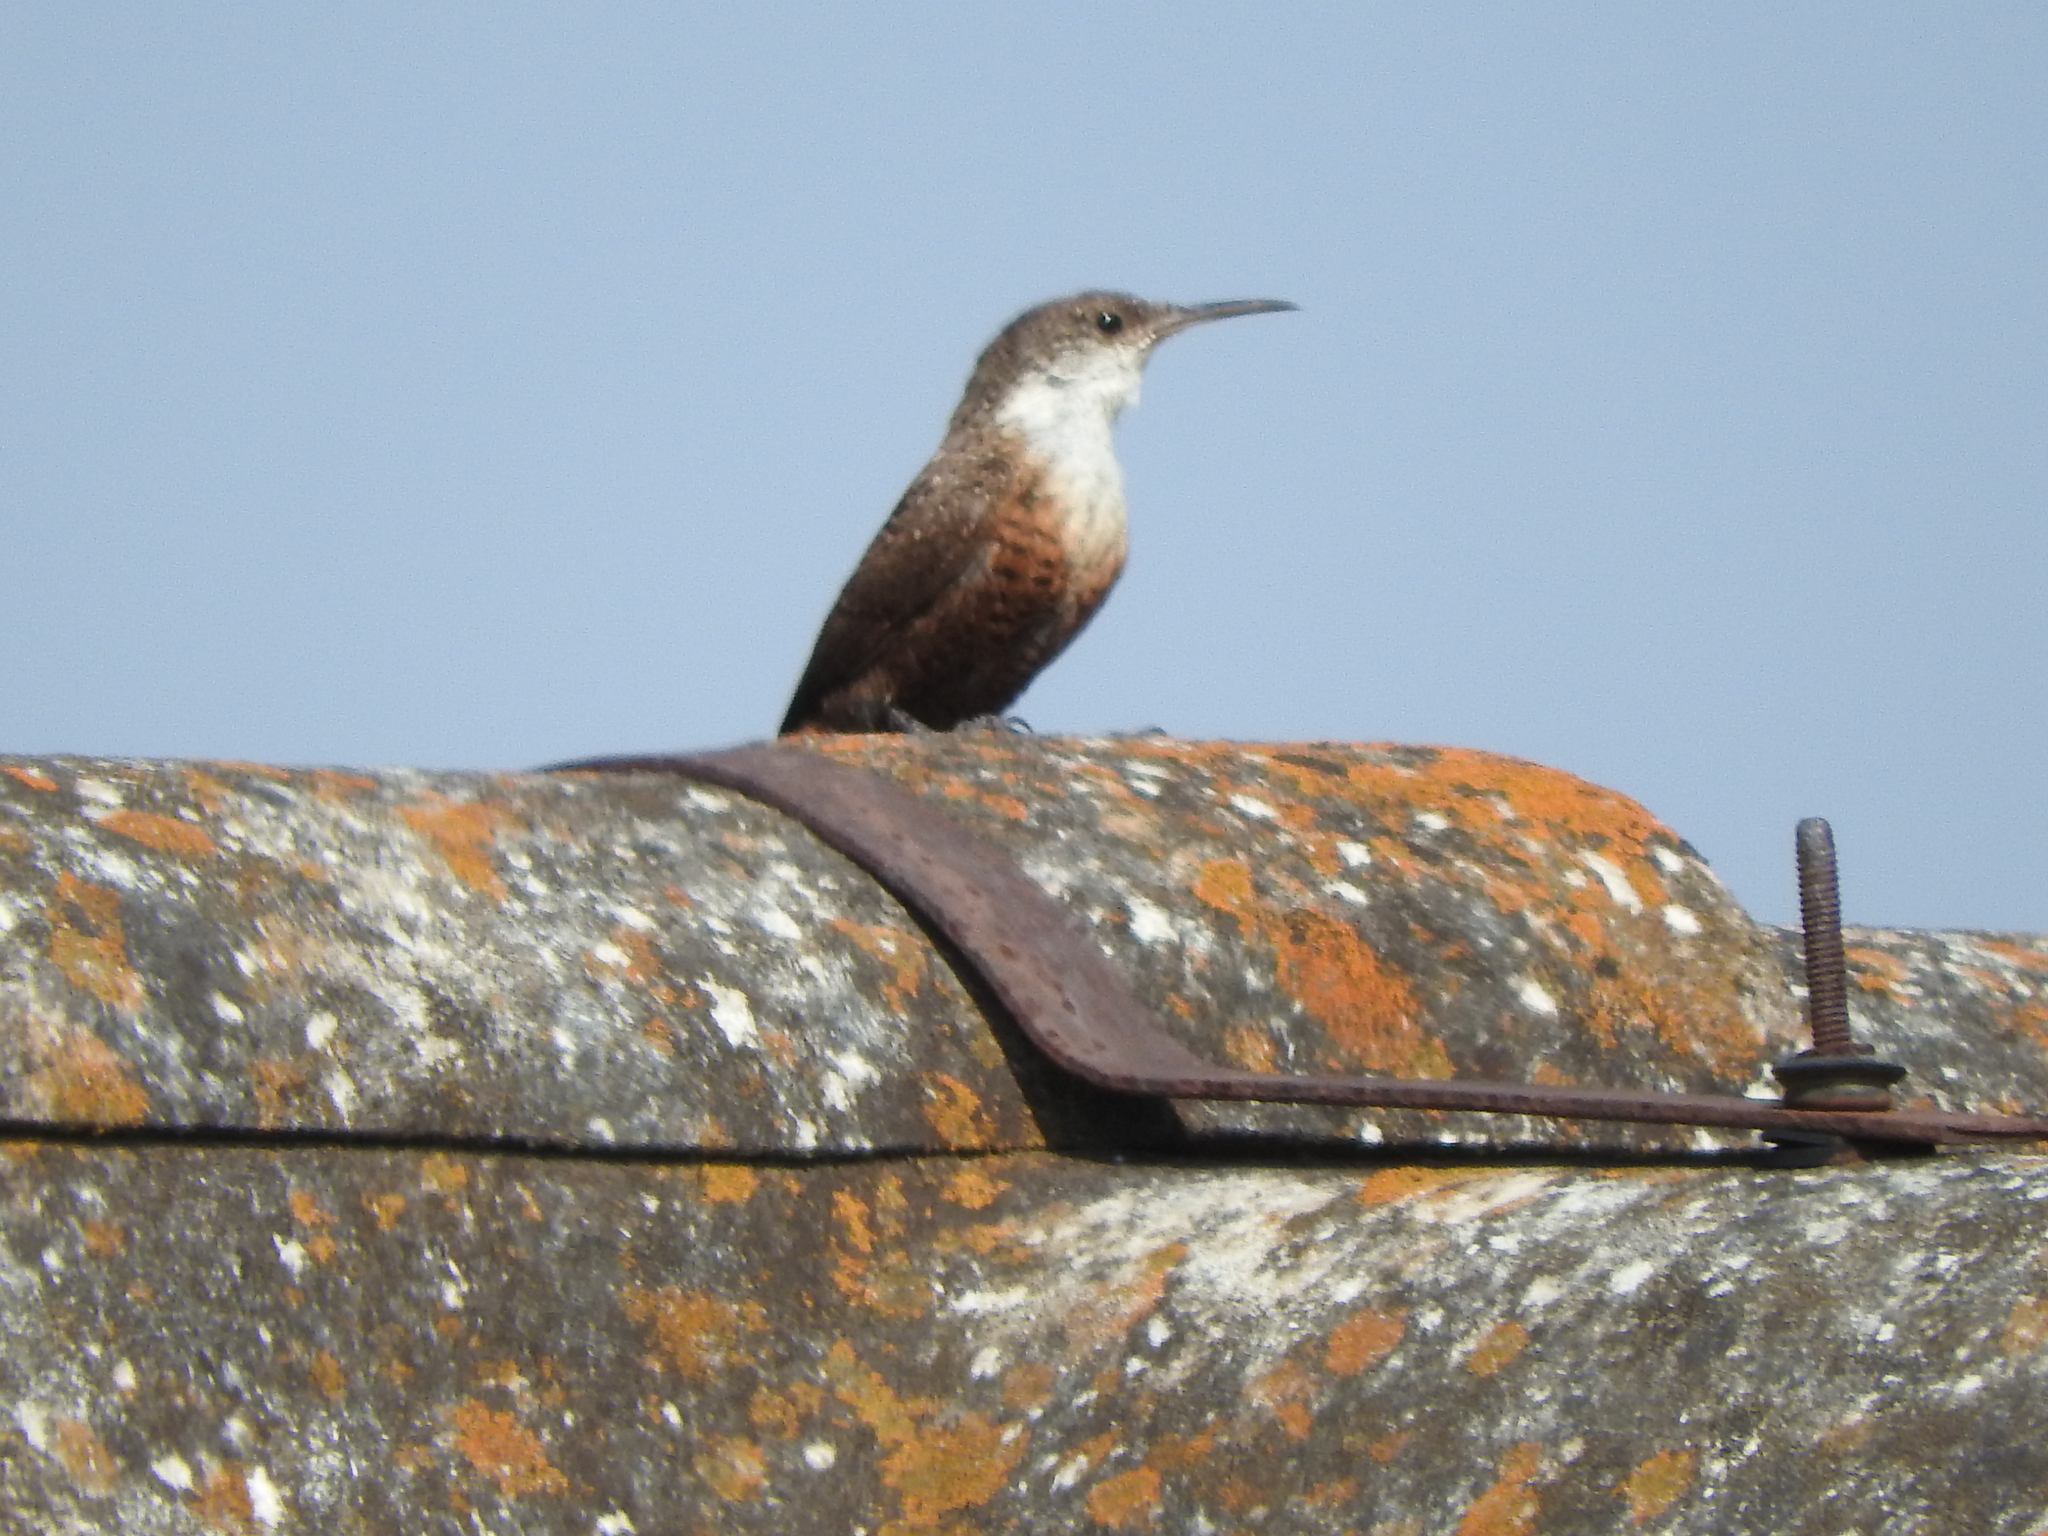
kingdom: Animalia
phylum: Chordata
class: Aves
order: Passeriformes
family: Troglodytidae
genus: Catherpes
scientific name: Catherpes mexicanus
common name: Canyon wren
